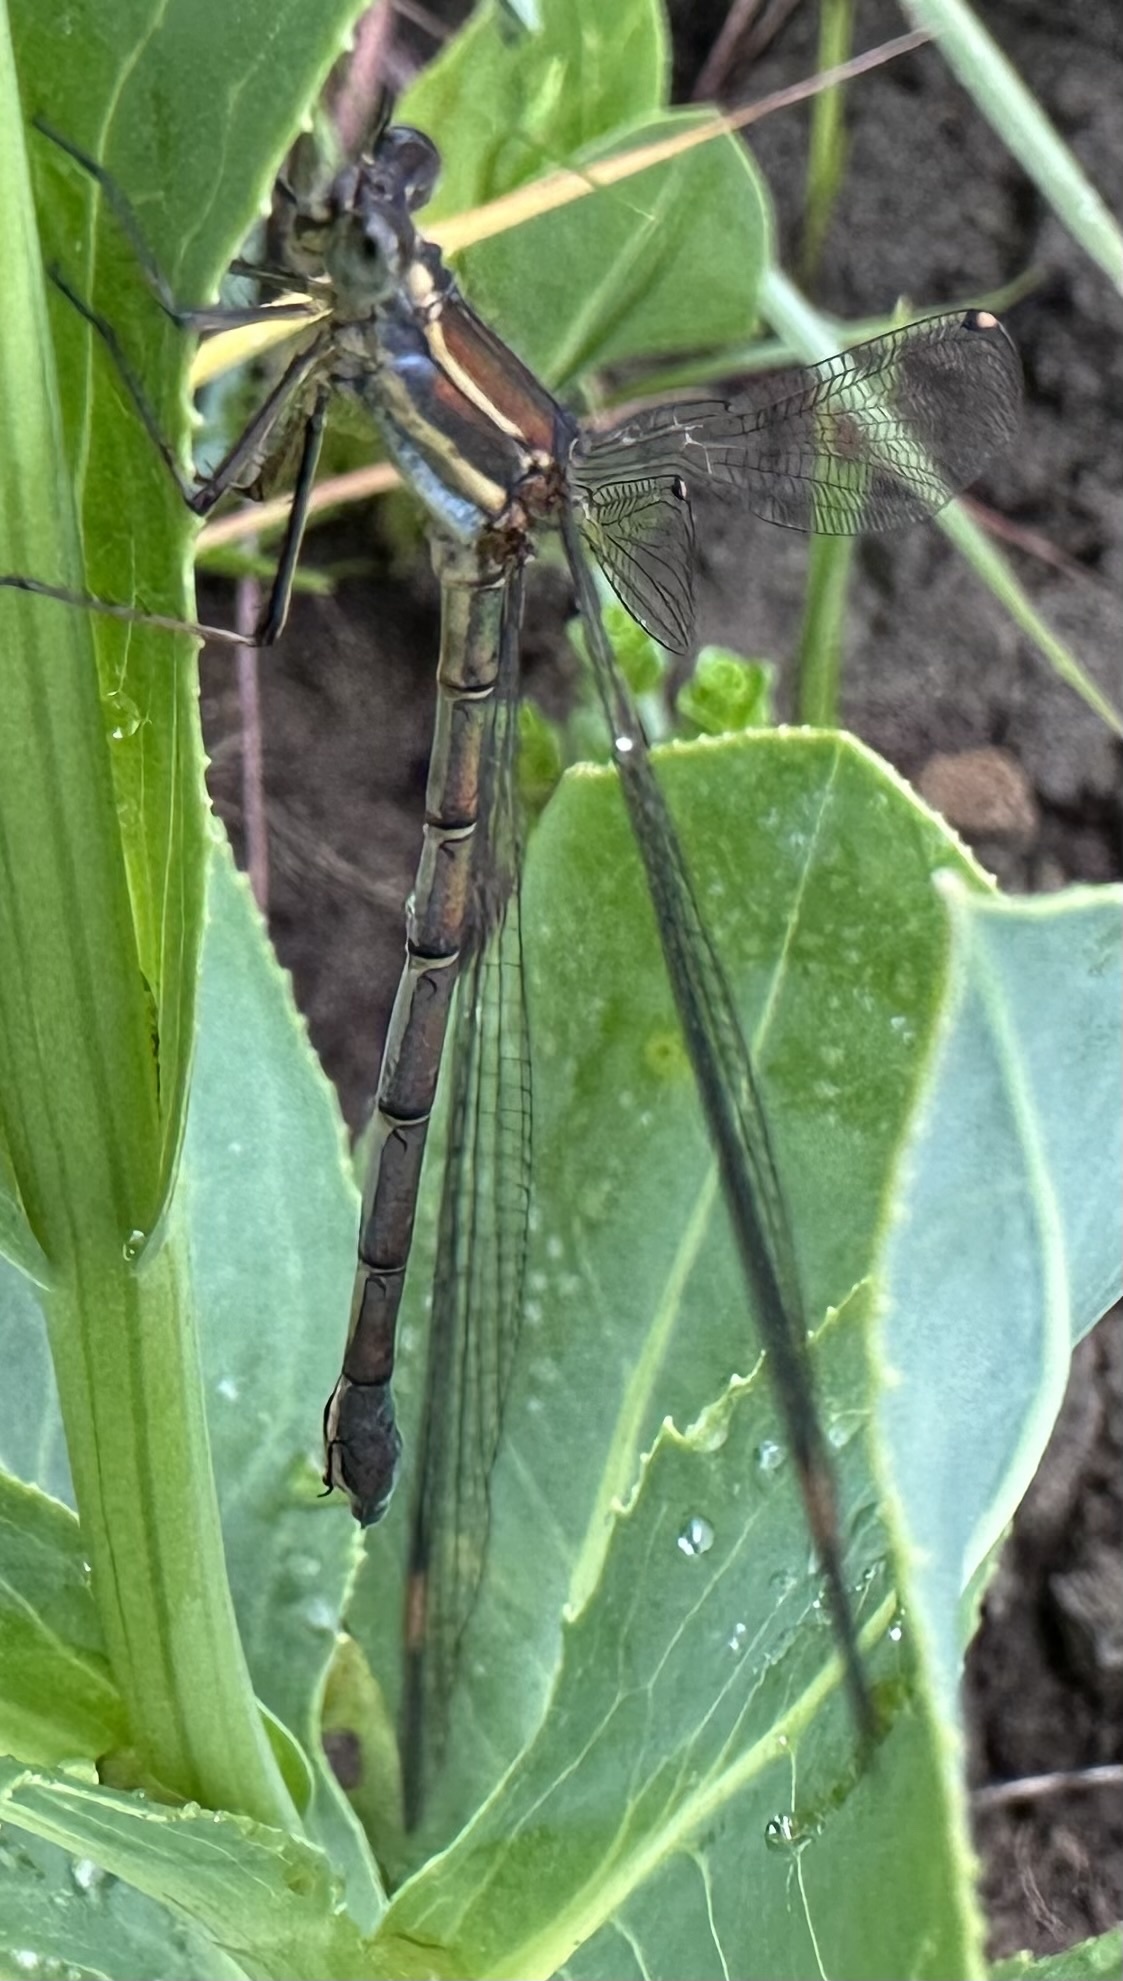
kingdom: Animalia
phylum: Arthropoda
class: Insecta
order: Odonata
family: Synlestidae
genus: Chlorolestes
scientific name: Chlorolestes fasciatus
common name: Mountain malachite
